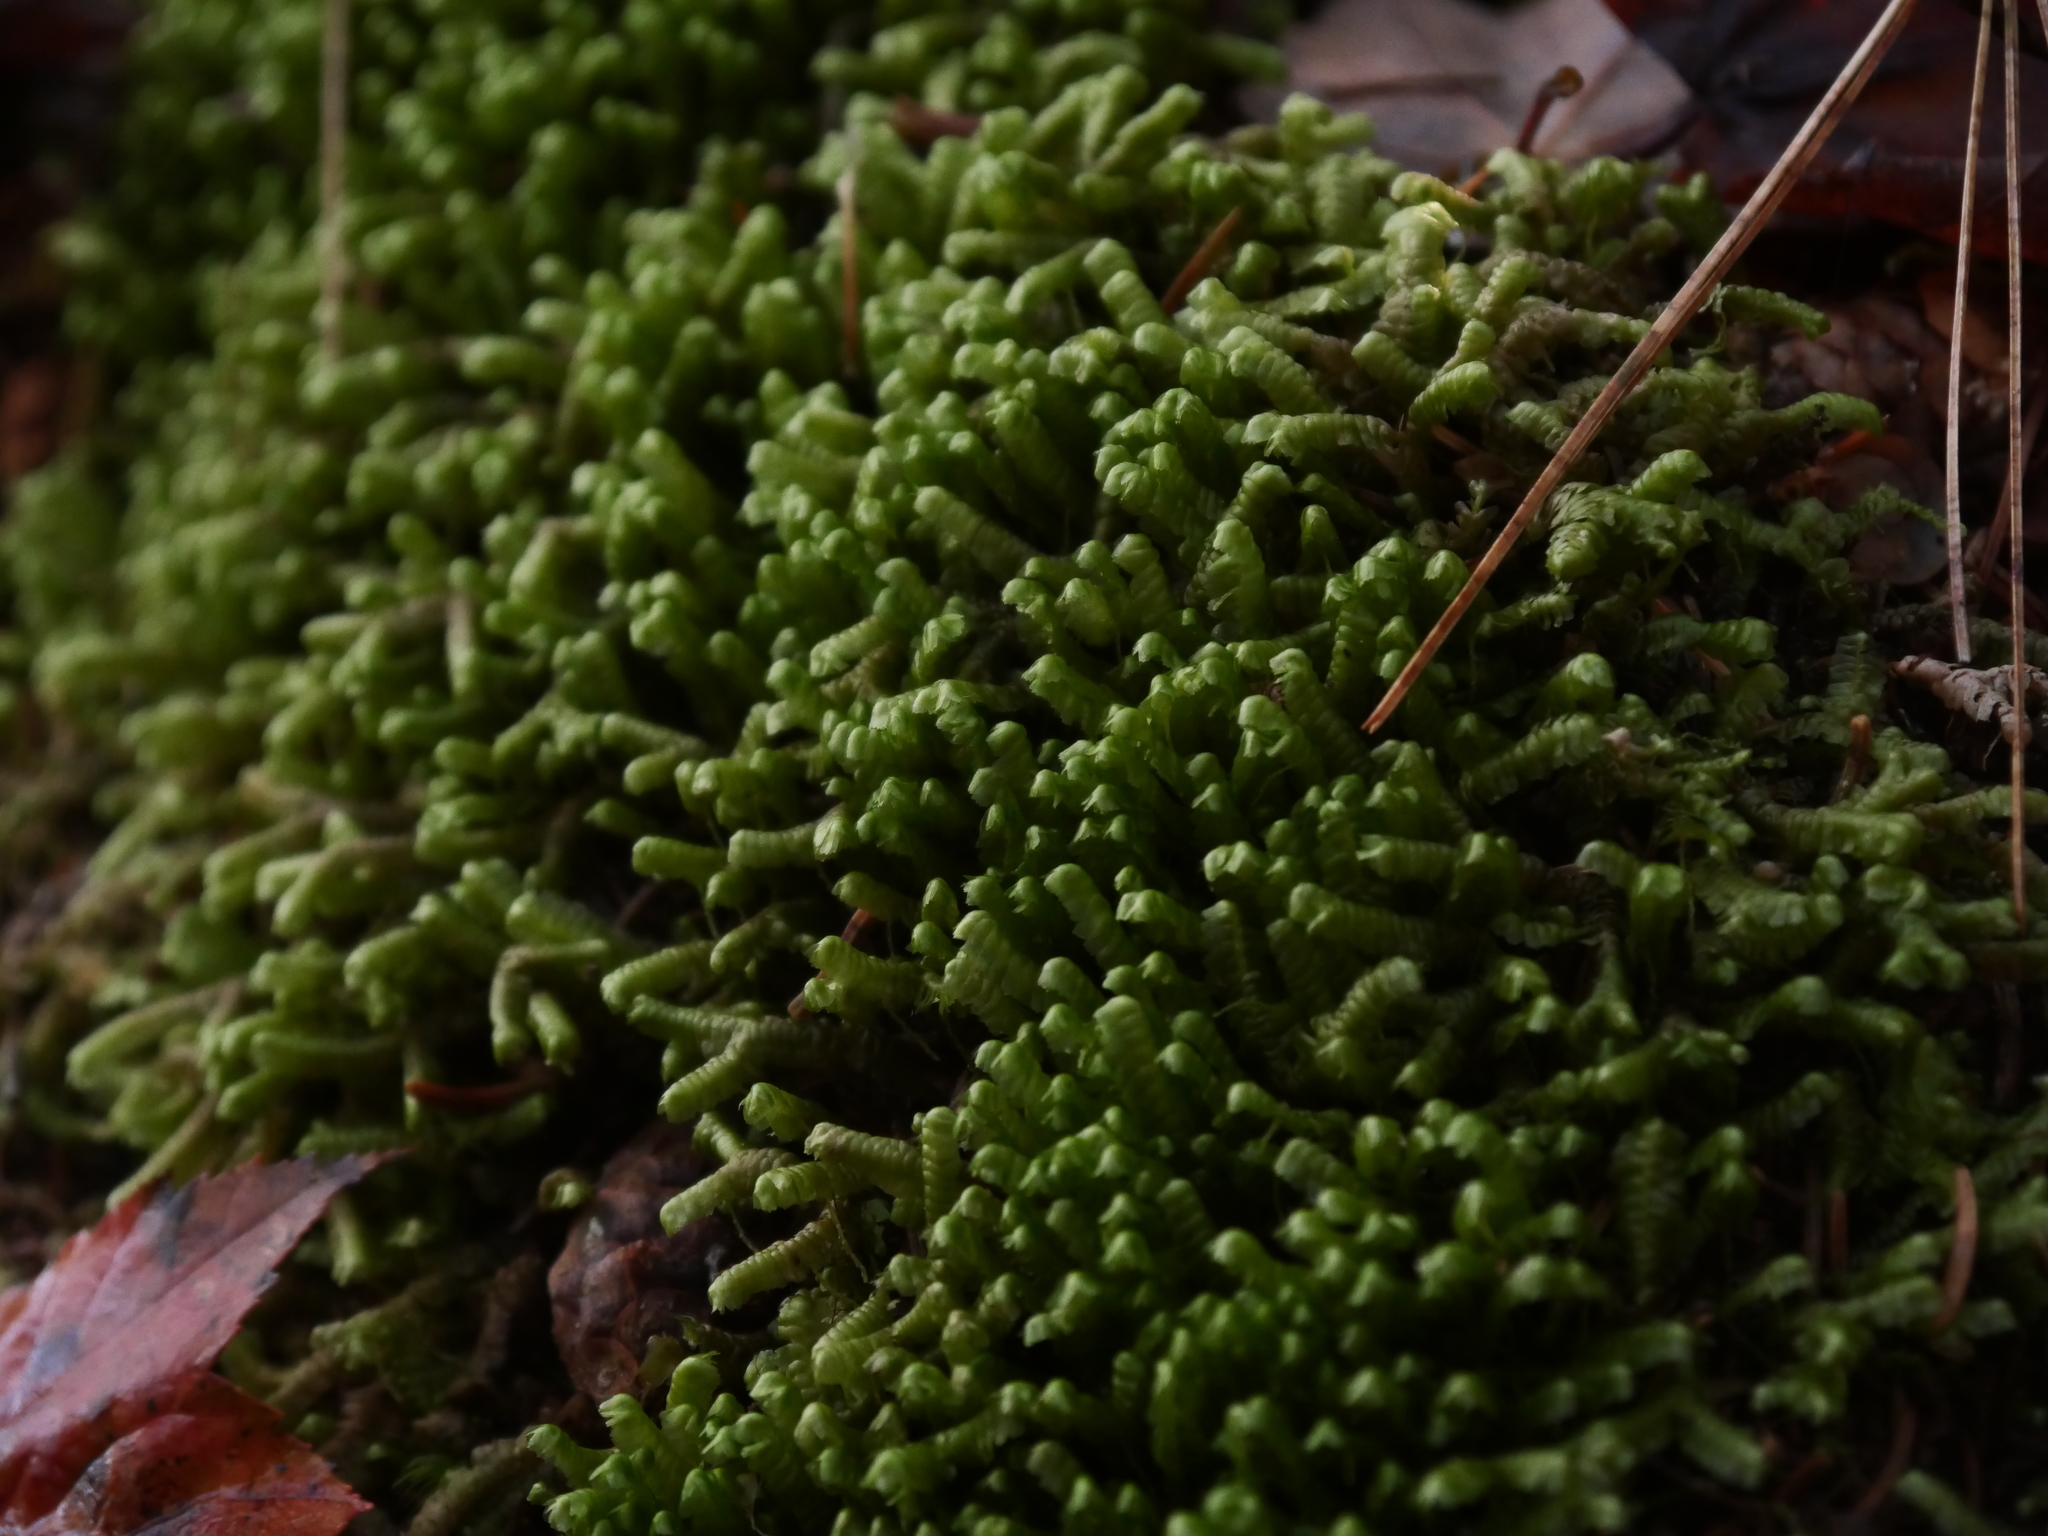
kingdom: Plantae
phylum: Marchantiophyta
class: Jungermanniopsida
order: Jungermanniales
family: Lepidoziaceae
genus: Bazzania
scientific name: Bazzania trilobata
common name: Three-lobed whipwort
